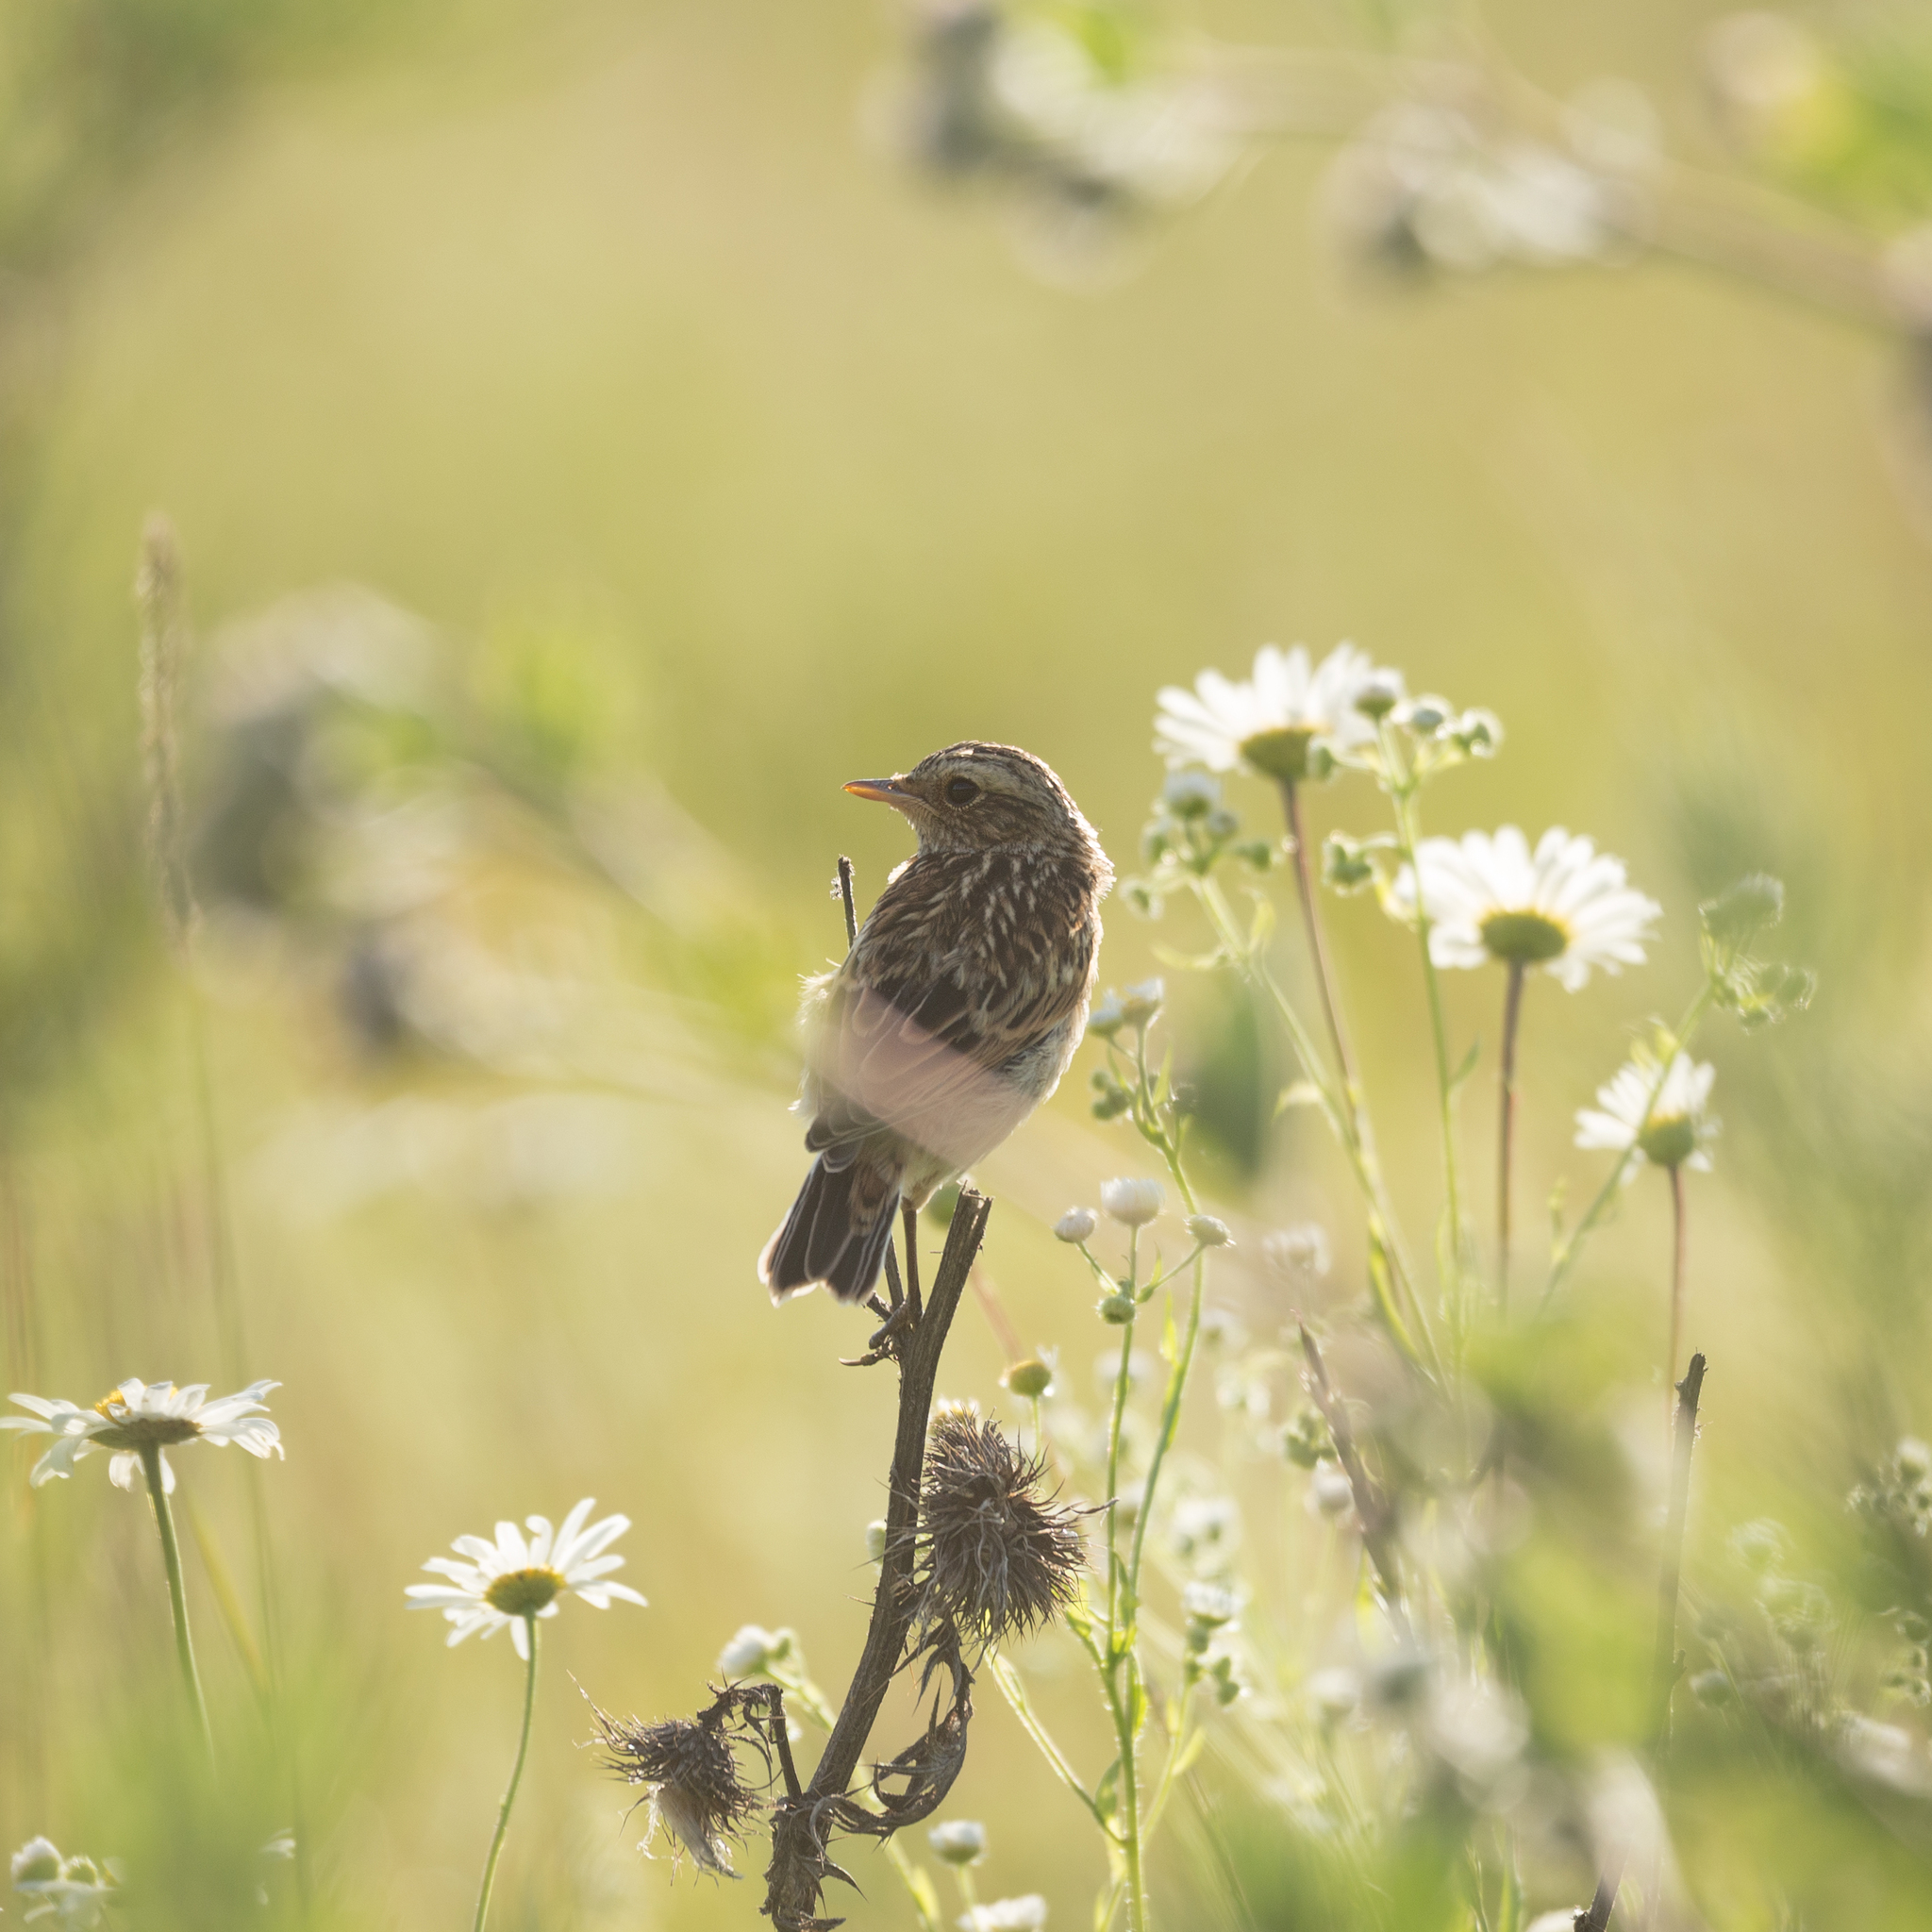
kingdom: Animalia
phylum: Chordata
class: Aves
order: Passeriformes
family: Muscicapidae
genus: Saxicola
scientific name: Saxicola rubetra
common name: Whinchat
